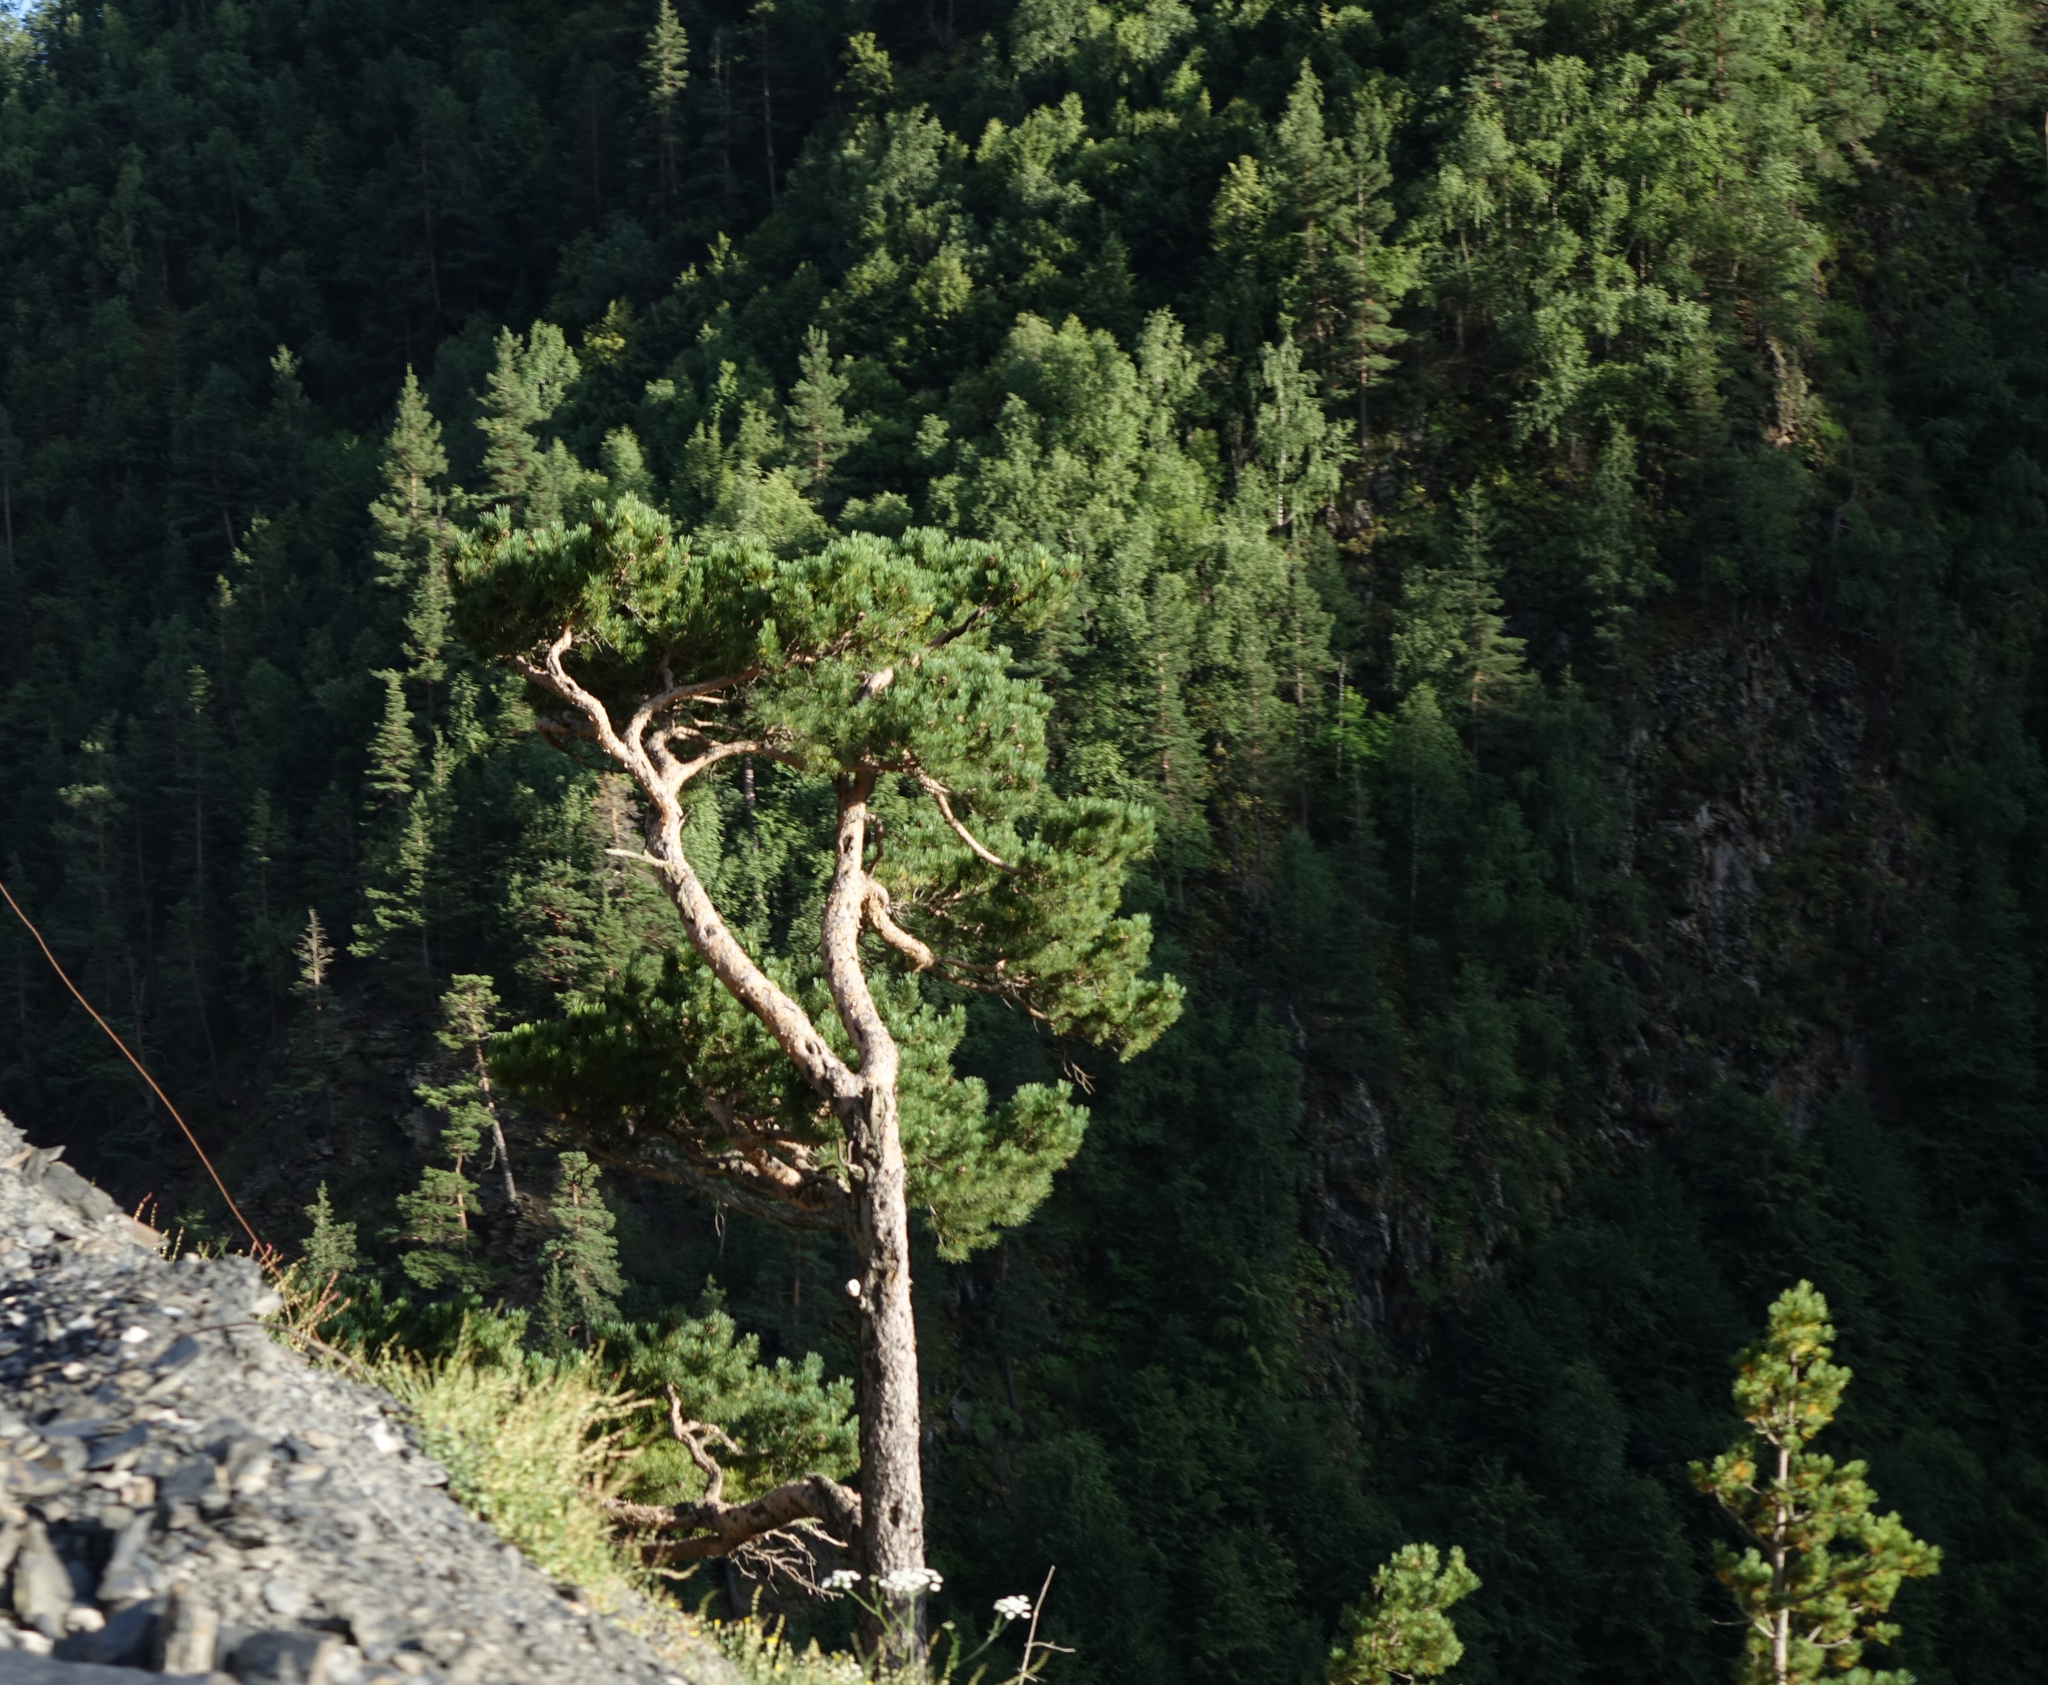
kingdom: Plantae
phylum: Tracheophyta
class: Pinopsida
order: Pinales
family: Pinaceae
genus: Pinus
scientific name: Pinus sylvestris
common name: Scots pine
